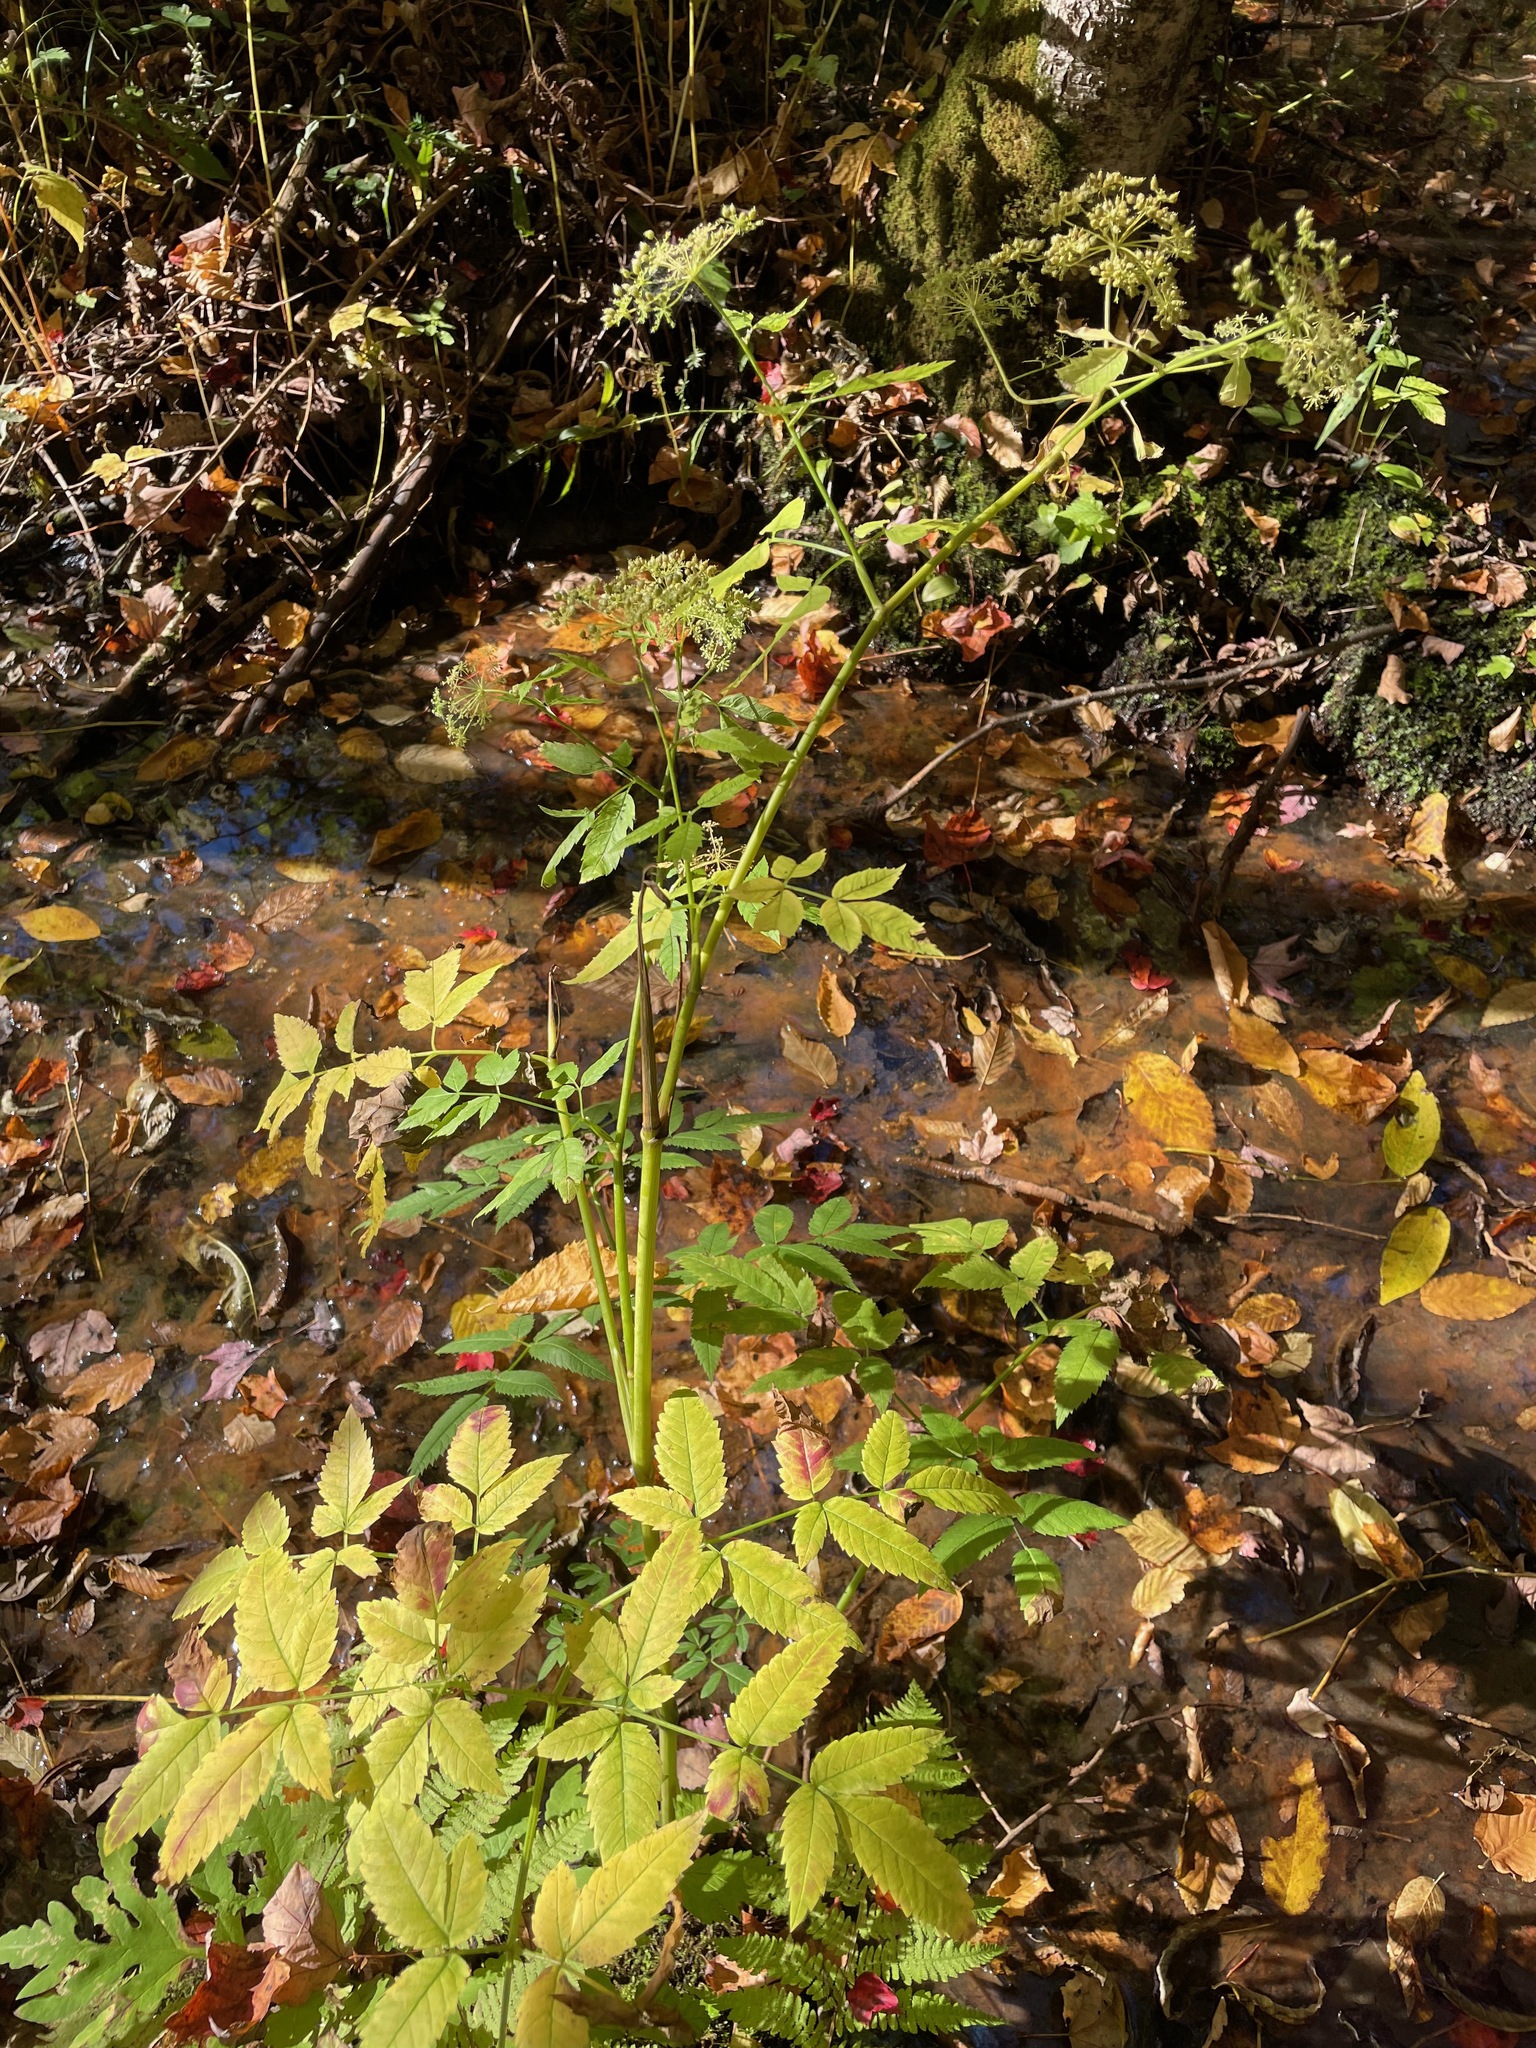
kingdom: Plantae
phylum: Tracheophyta
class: Magnoliopsida
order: Apiales
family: Apiaceae
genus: Cicuta
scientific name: Cicuta maculata
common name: Spotted cowbane
